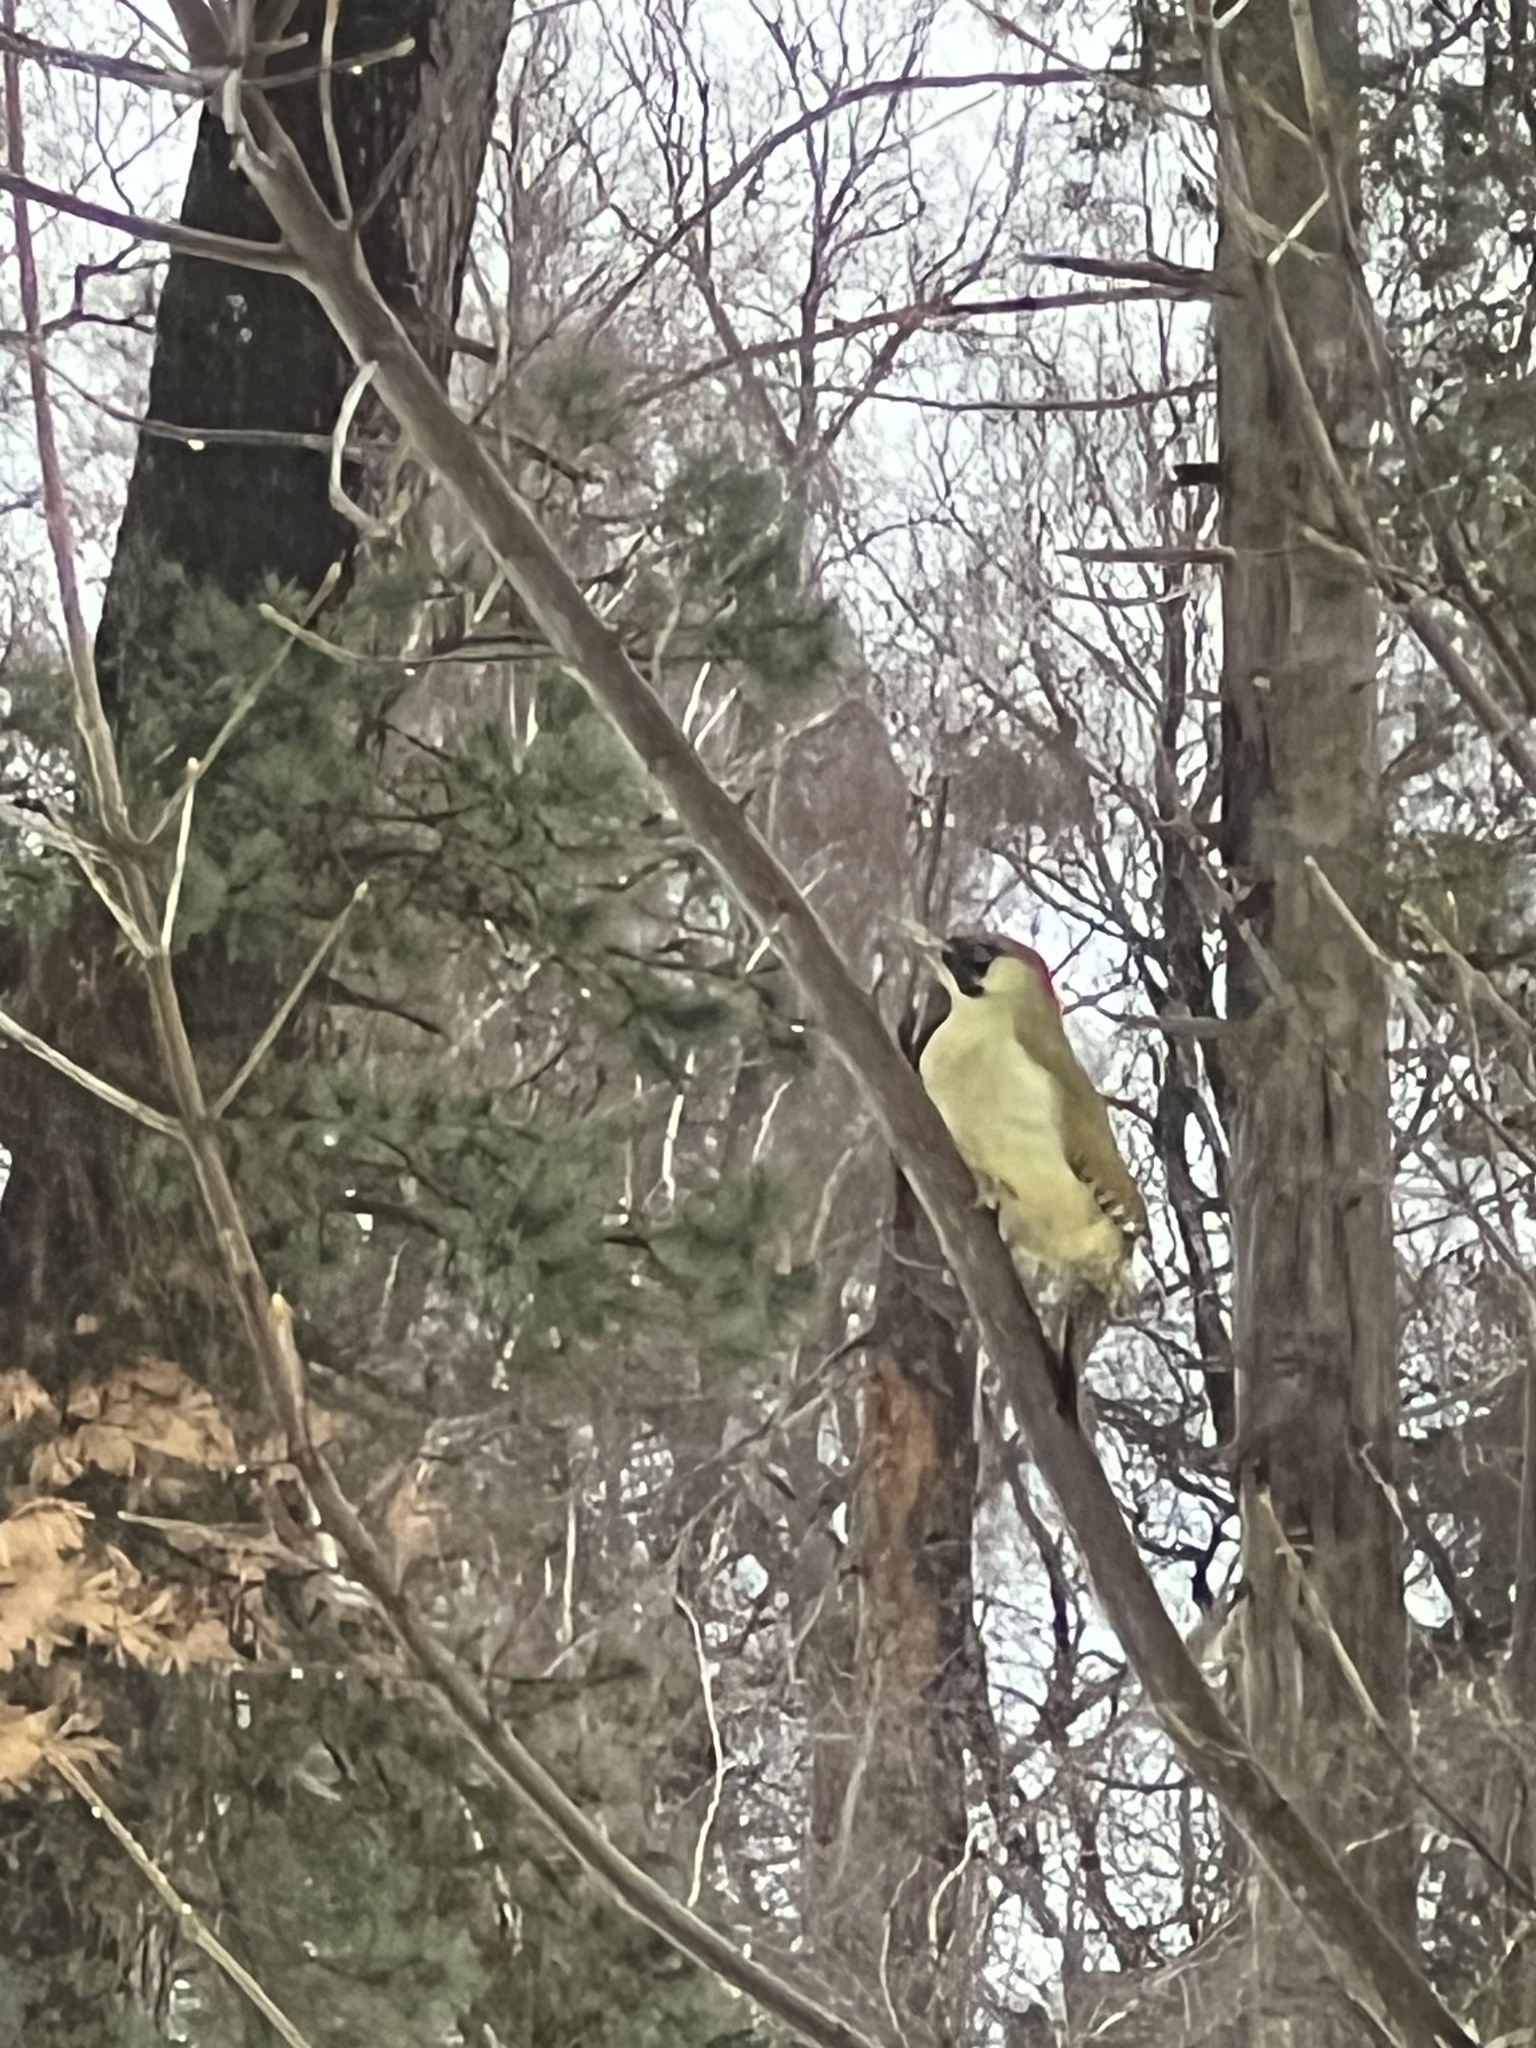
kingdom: Animalia
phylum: Chordata
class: Aves
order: Piciformes
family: Picidae
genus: Picus
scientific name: Picus viridis
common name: European green woodpecker
